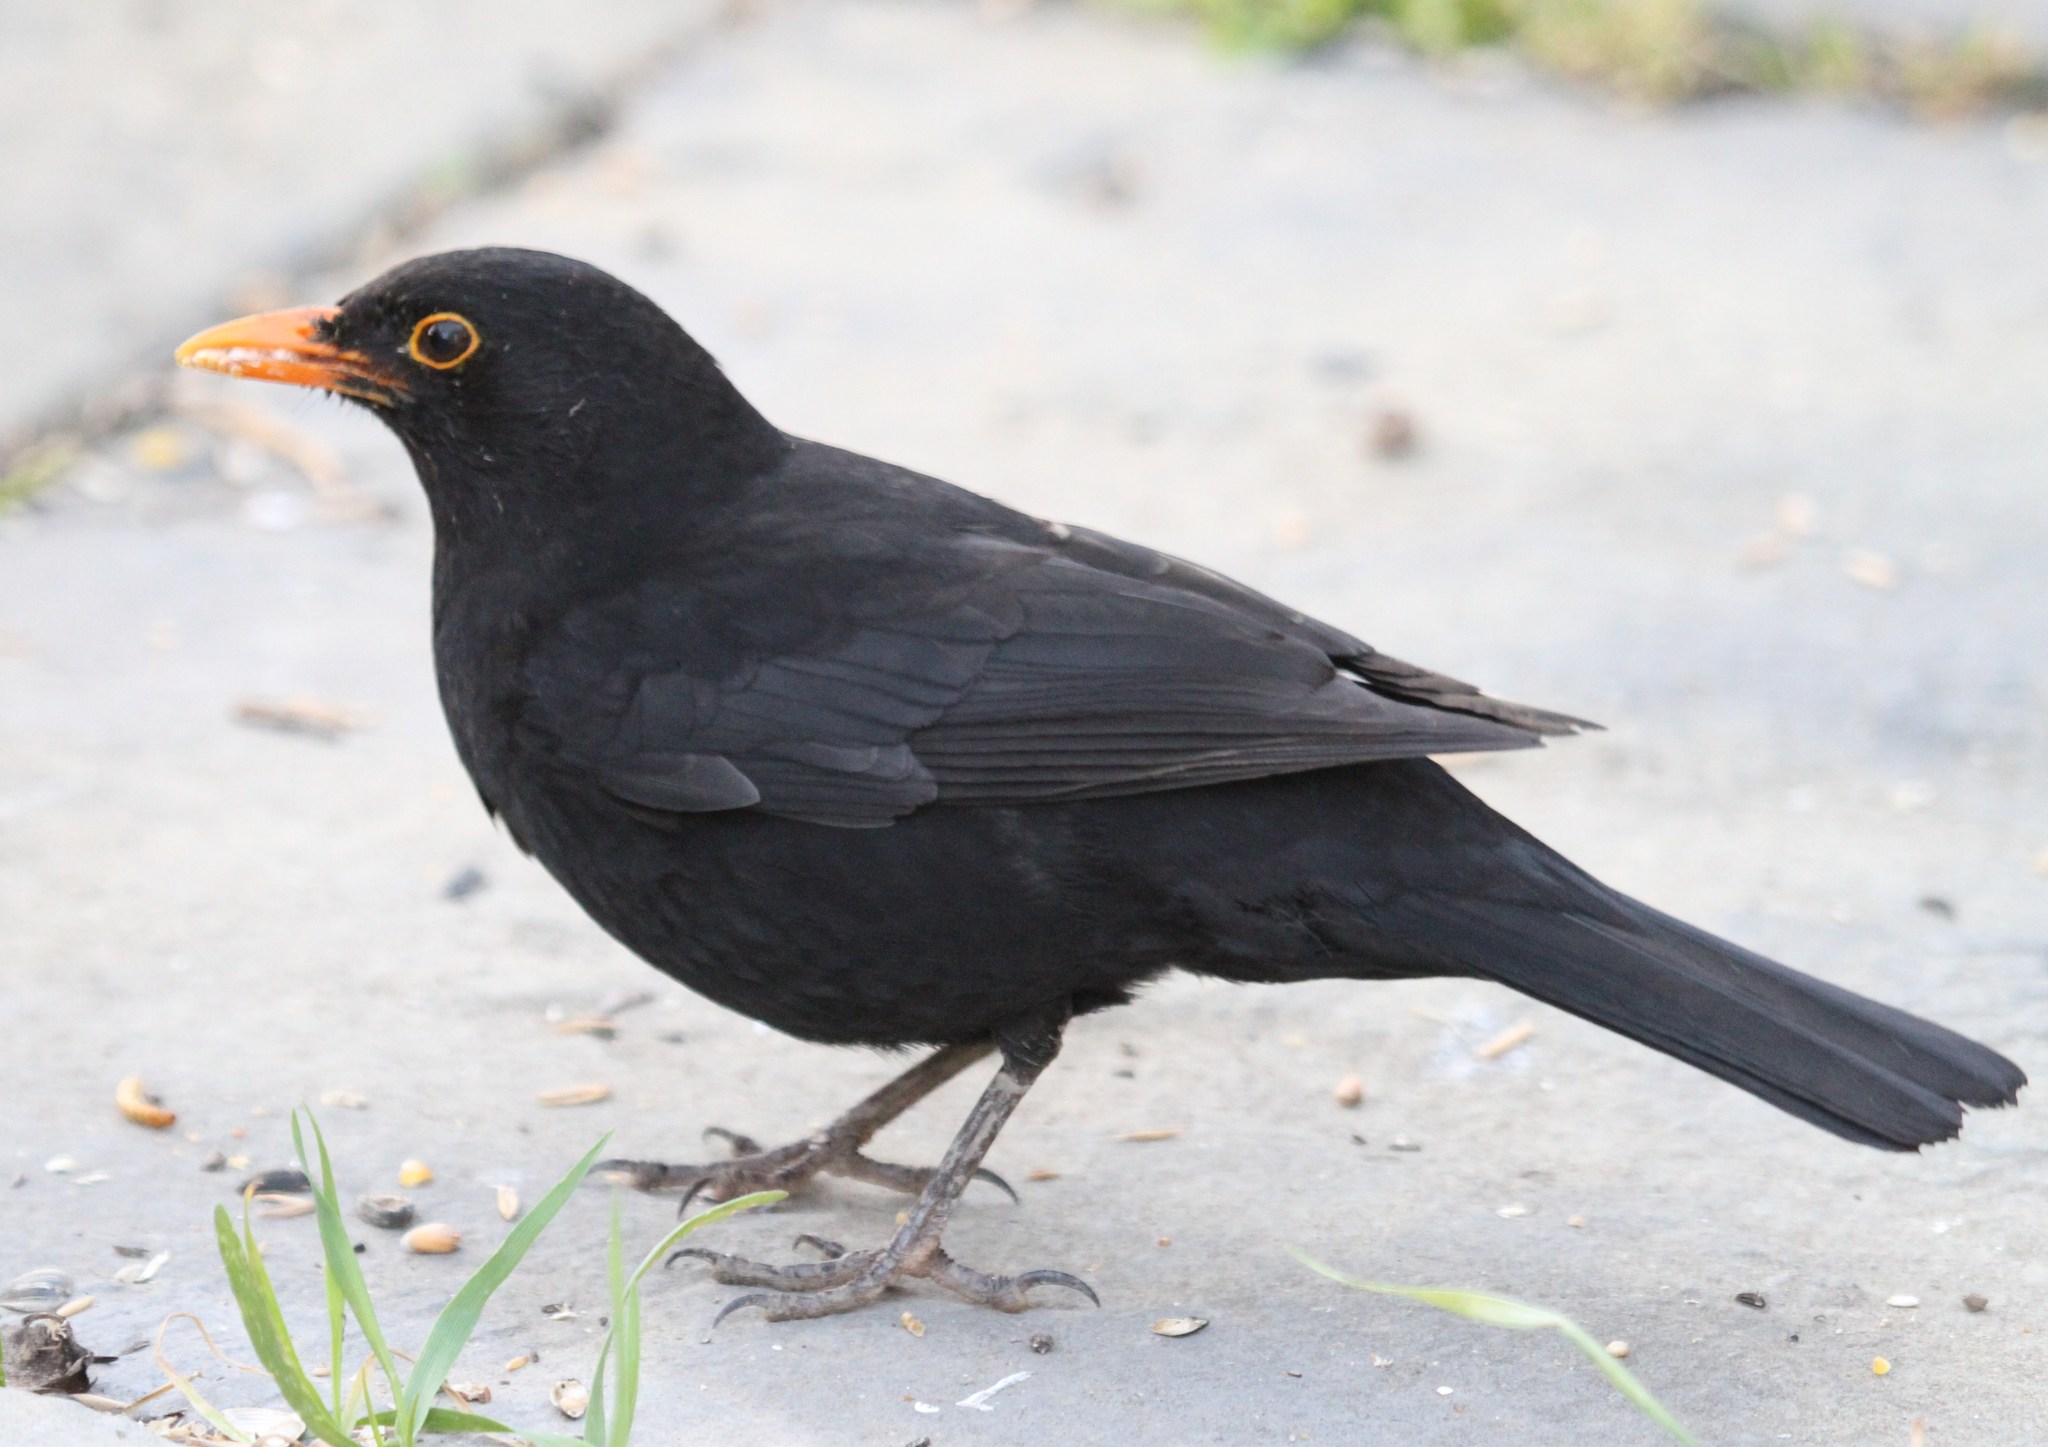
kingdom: Animalia
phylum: Chordata
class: Aves
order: Passeriformes
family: Turdidae
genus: Turdus
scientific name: Turdus merula
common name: Common blackbird
